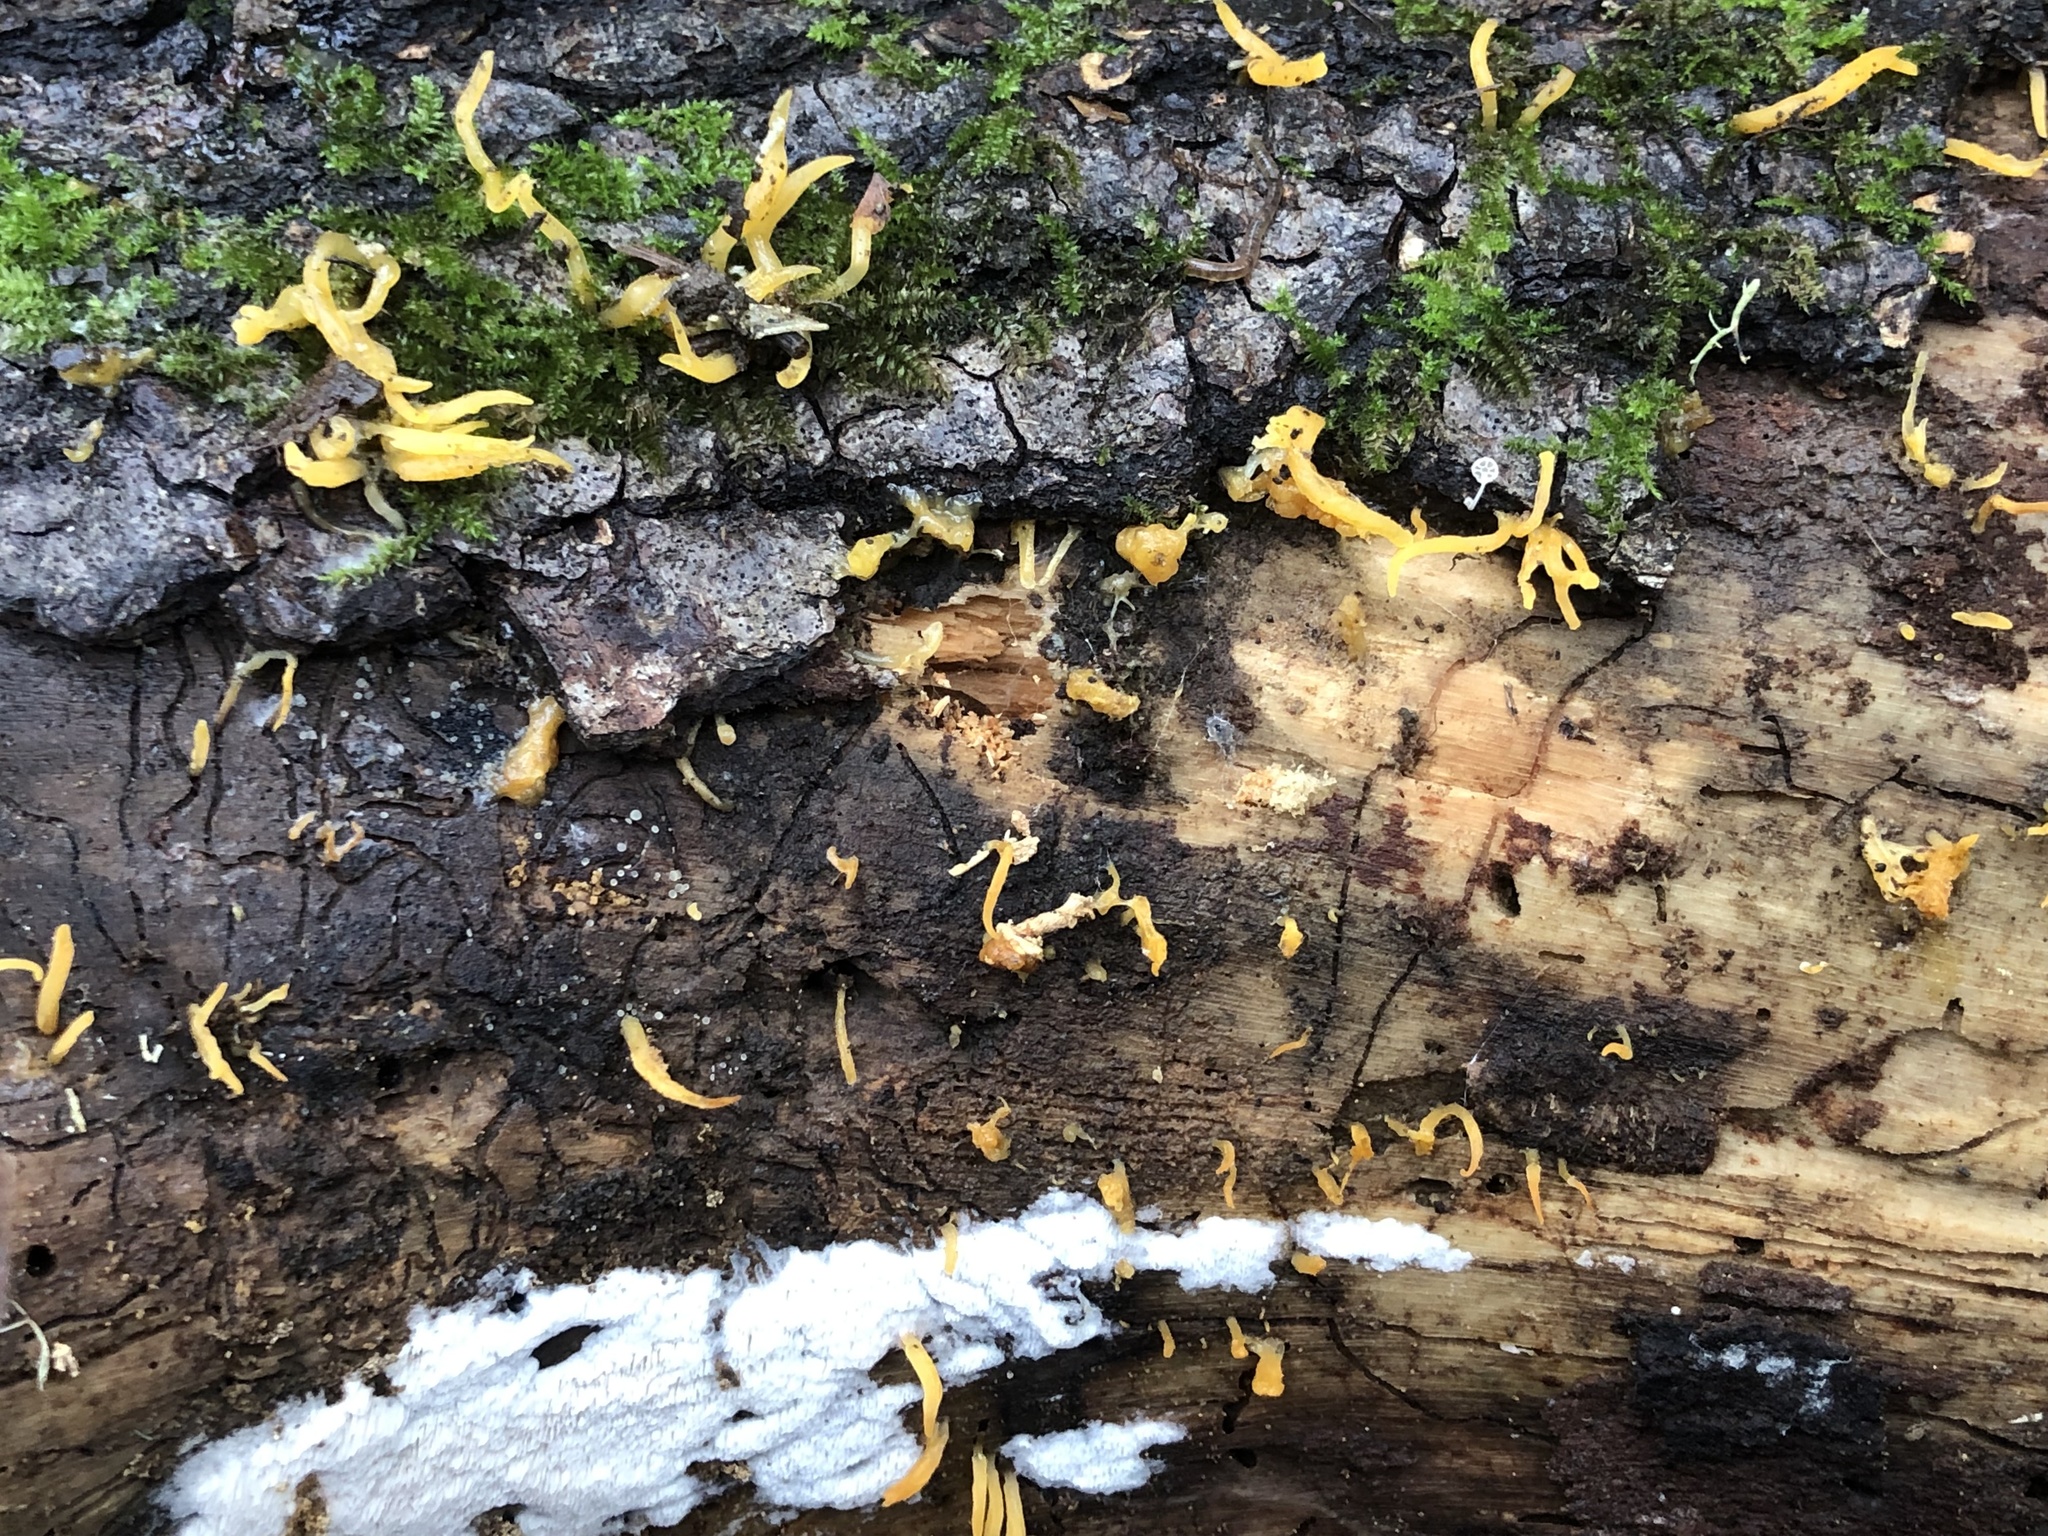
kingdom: Fungi
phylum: Basidiomycota
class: Dacrymycetes
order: Dacrymycetales
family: Dacrymycetaceae
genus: Calocera
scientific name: Calocera cornea
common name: Small stagshorn
